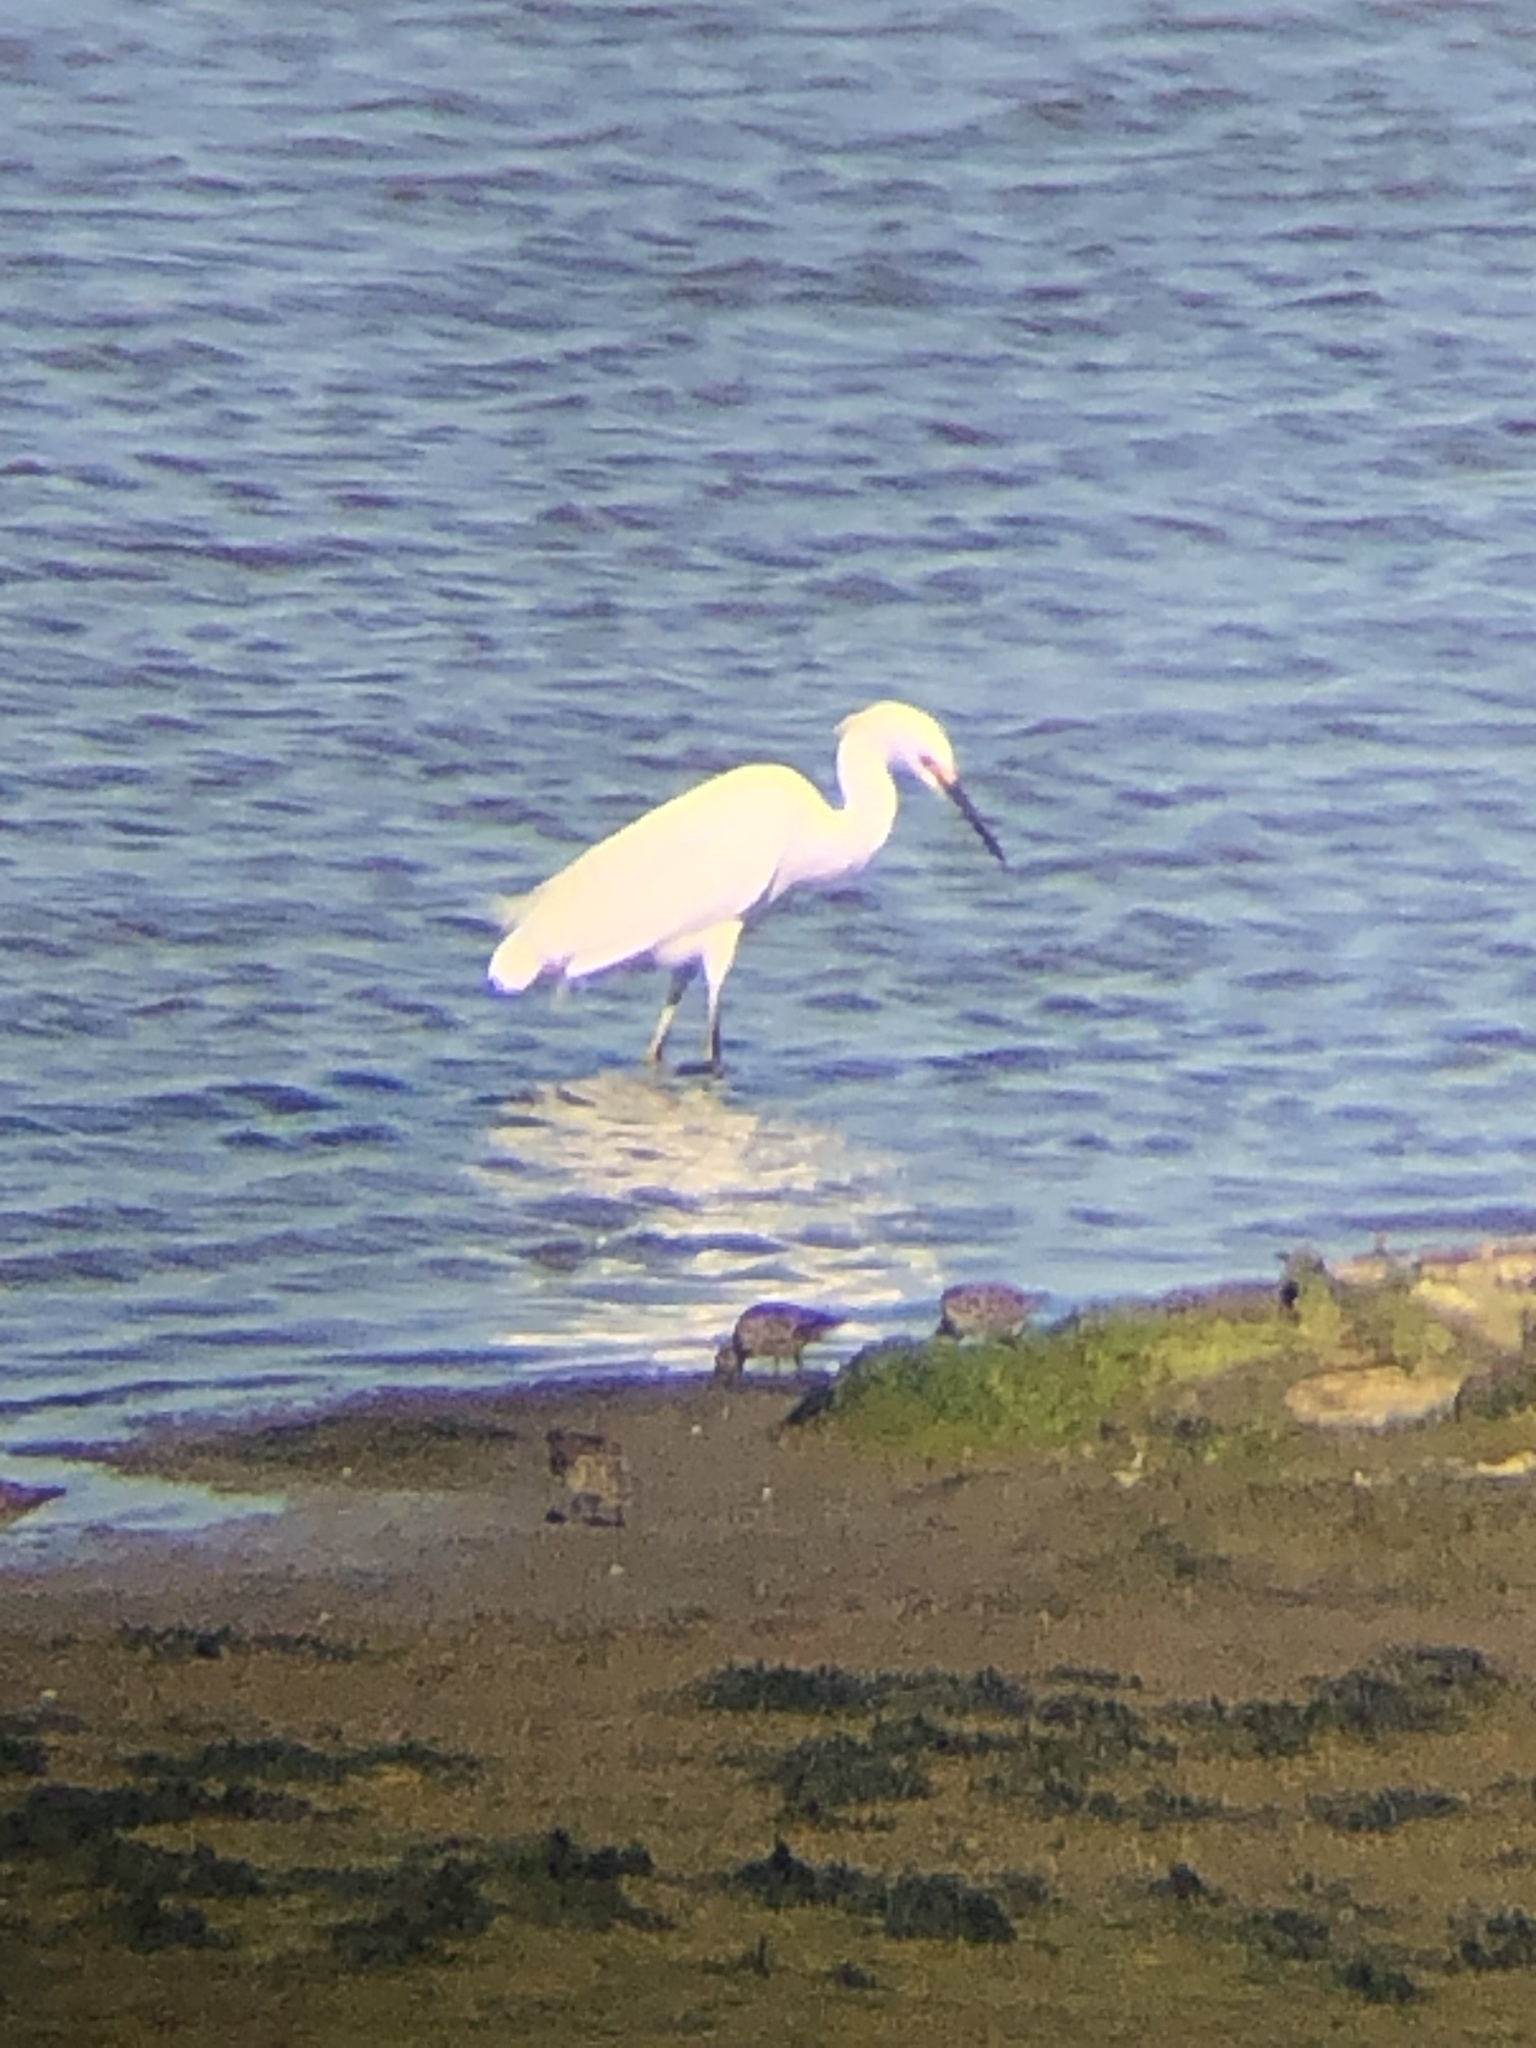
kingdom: Animalia
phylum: Chordata
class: Aves
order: Pelecaniformes
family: Ardeidae
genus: Egretta
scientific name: Egretta thula
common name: Snowy egret
